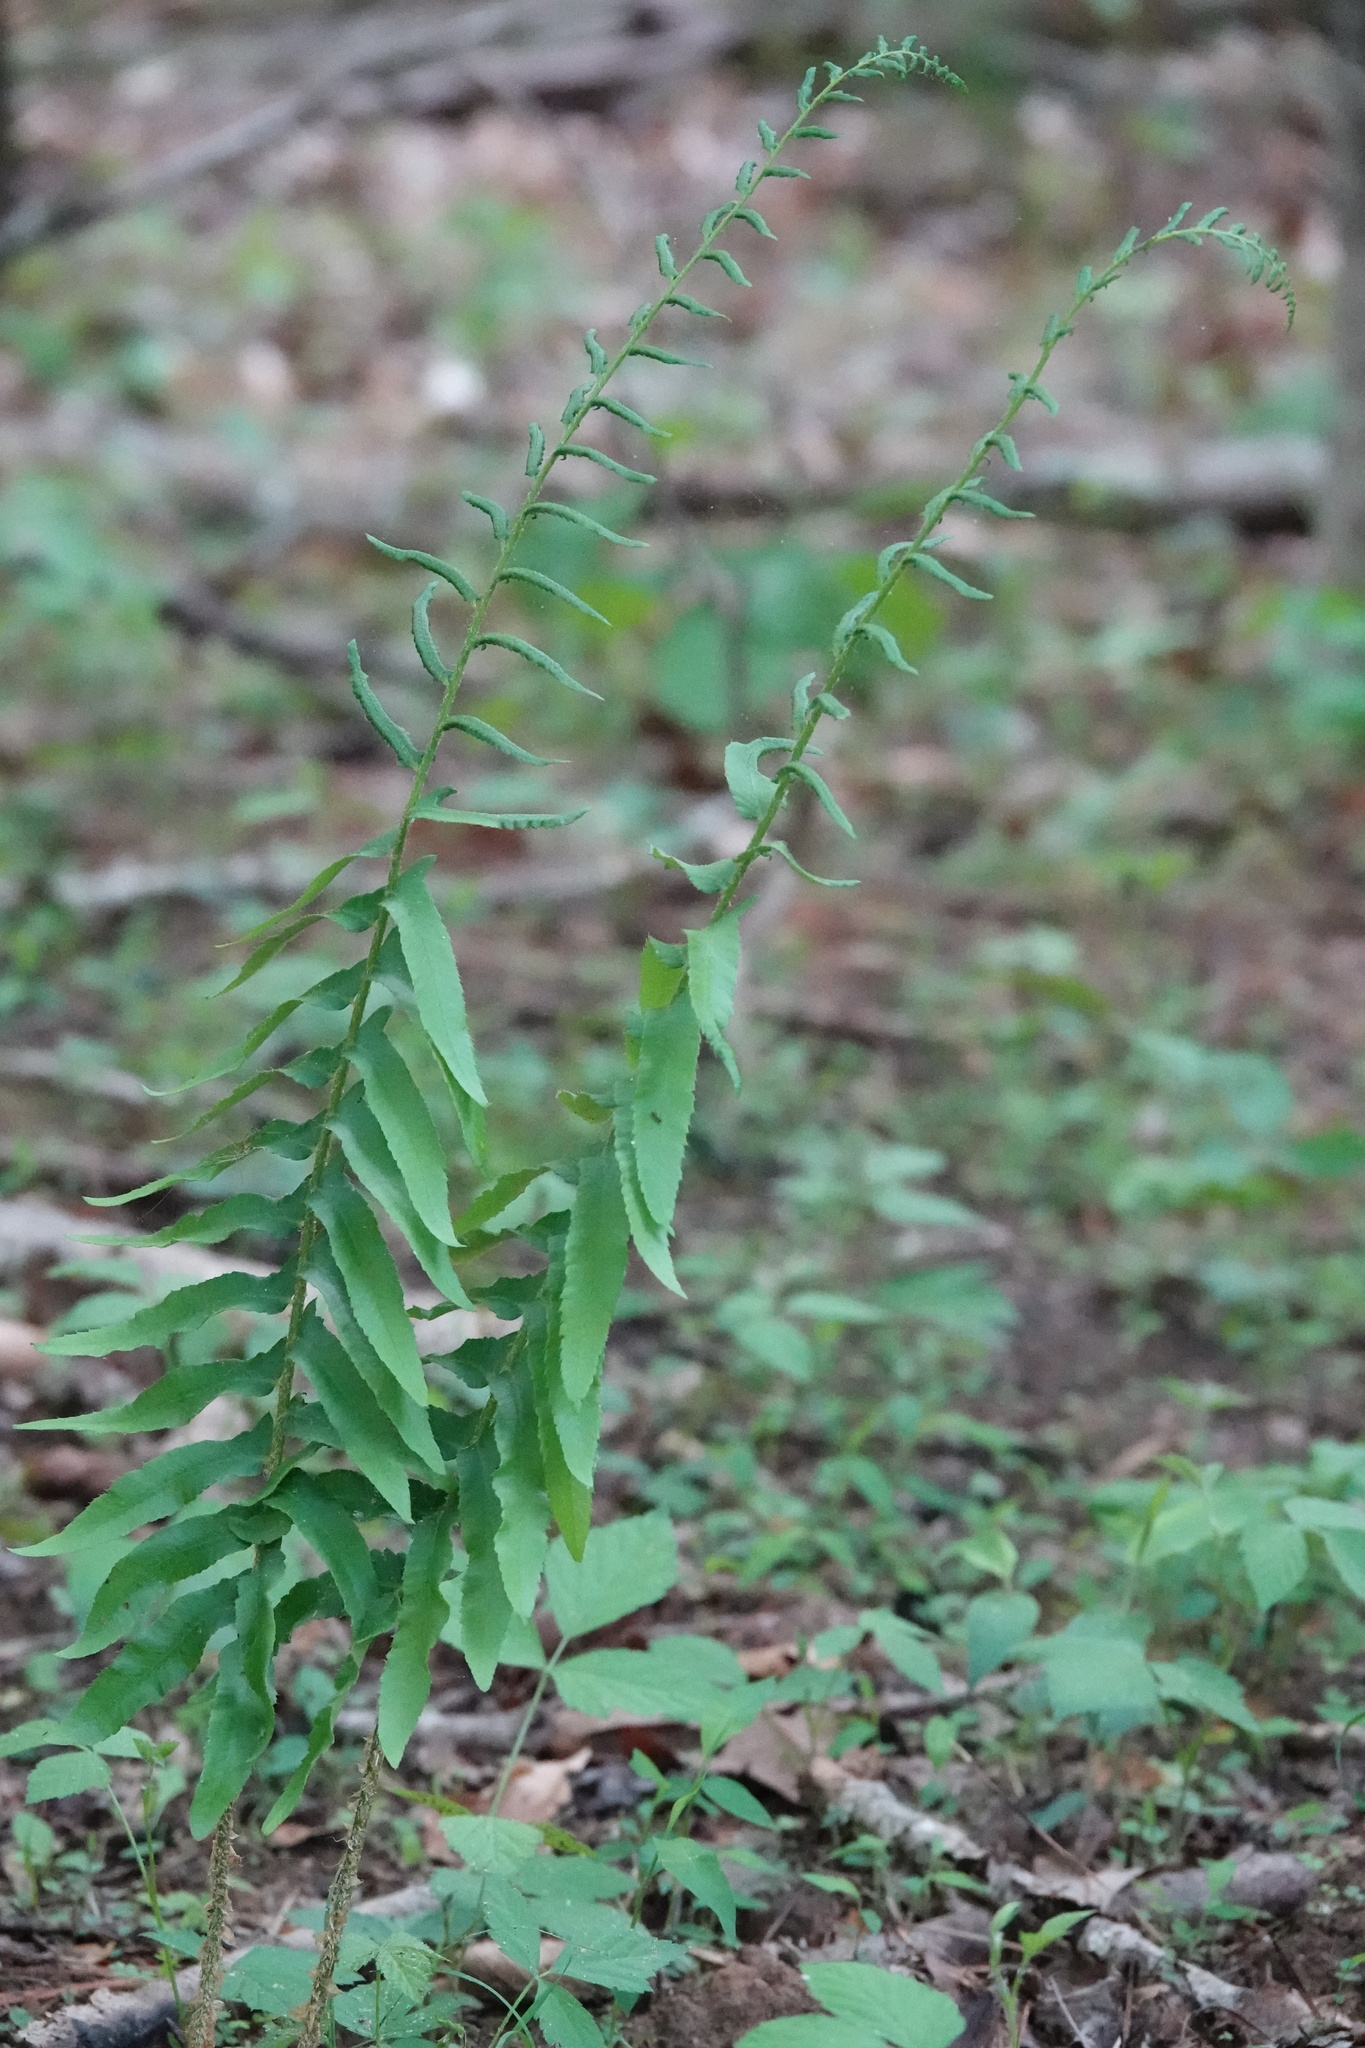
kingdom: Plantae
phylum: Tracheophyta
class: Polypodiopsida
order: Polypodiales
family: Dryopteridaceae
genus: Polystichum
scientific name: Polystichum acrostichoides
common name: Christmas fern
